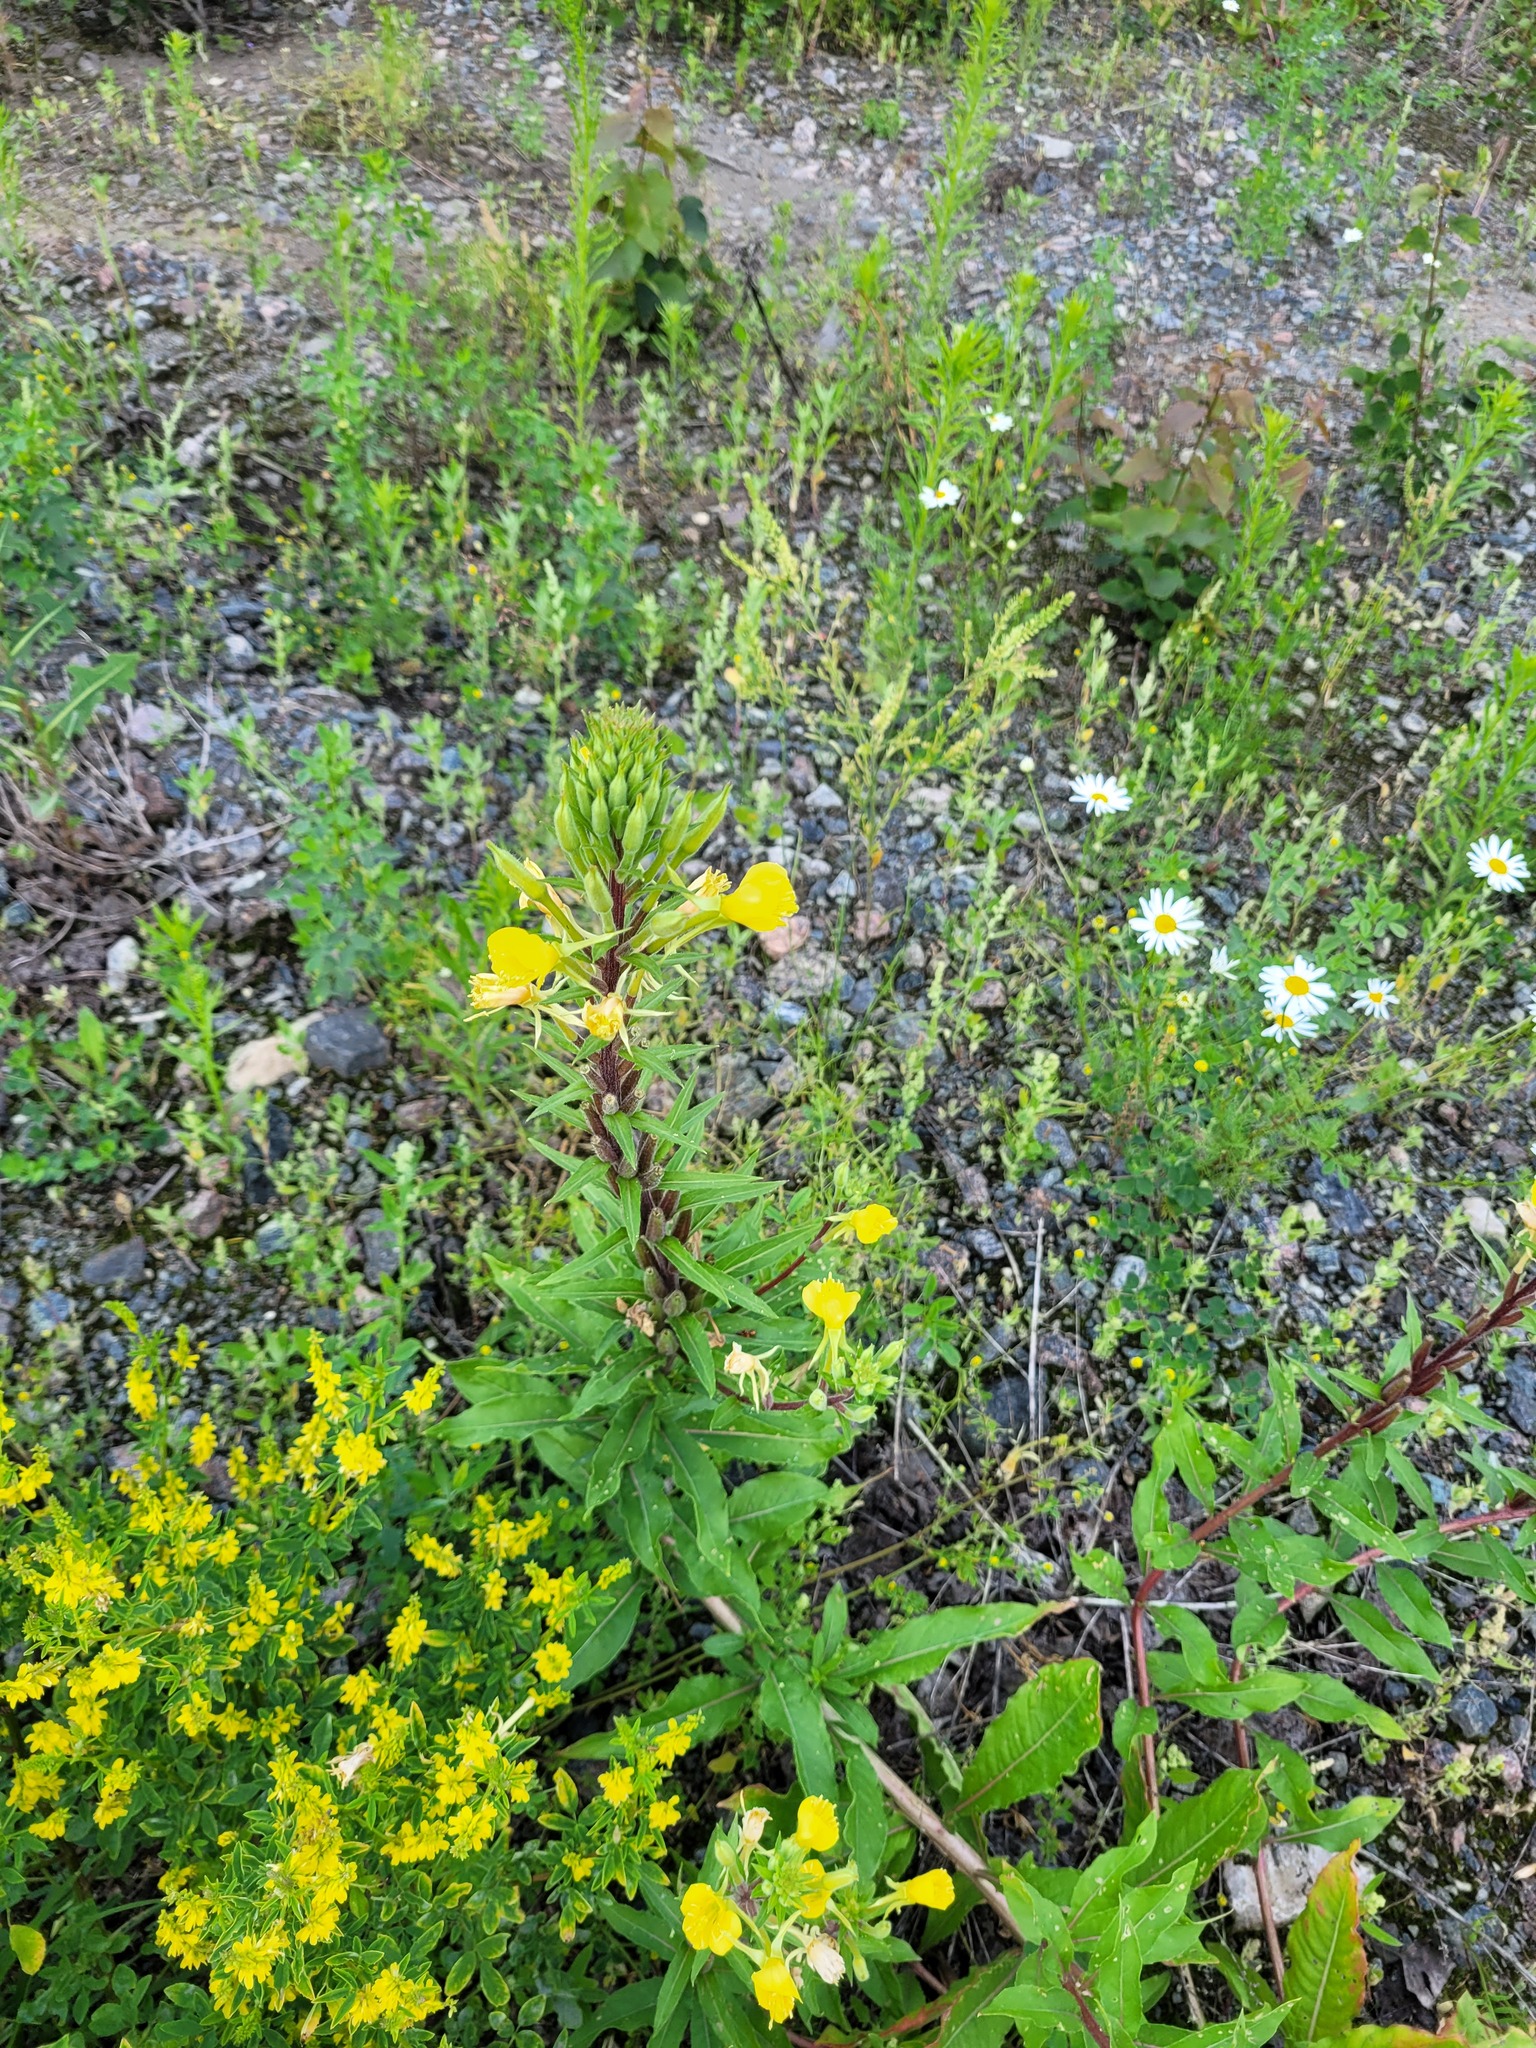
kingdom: Plantae
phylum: Tracheophyta
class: Magnoliopsida
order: Myrtales
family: Onagraceae
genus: Oenothera
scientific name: Oenothera rubricaulis
